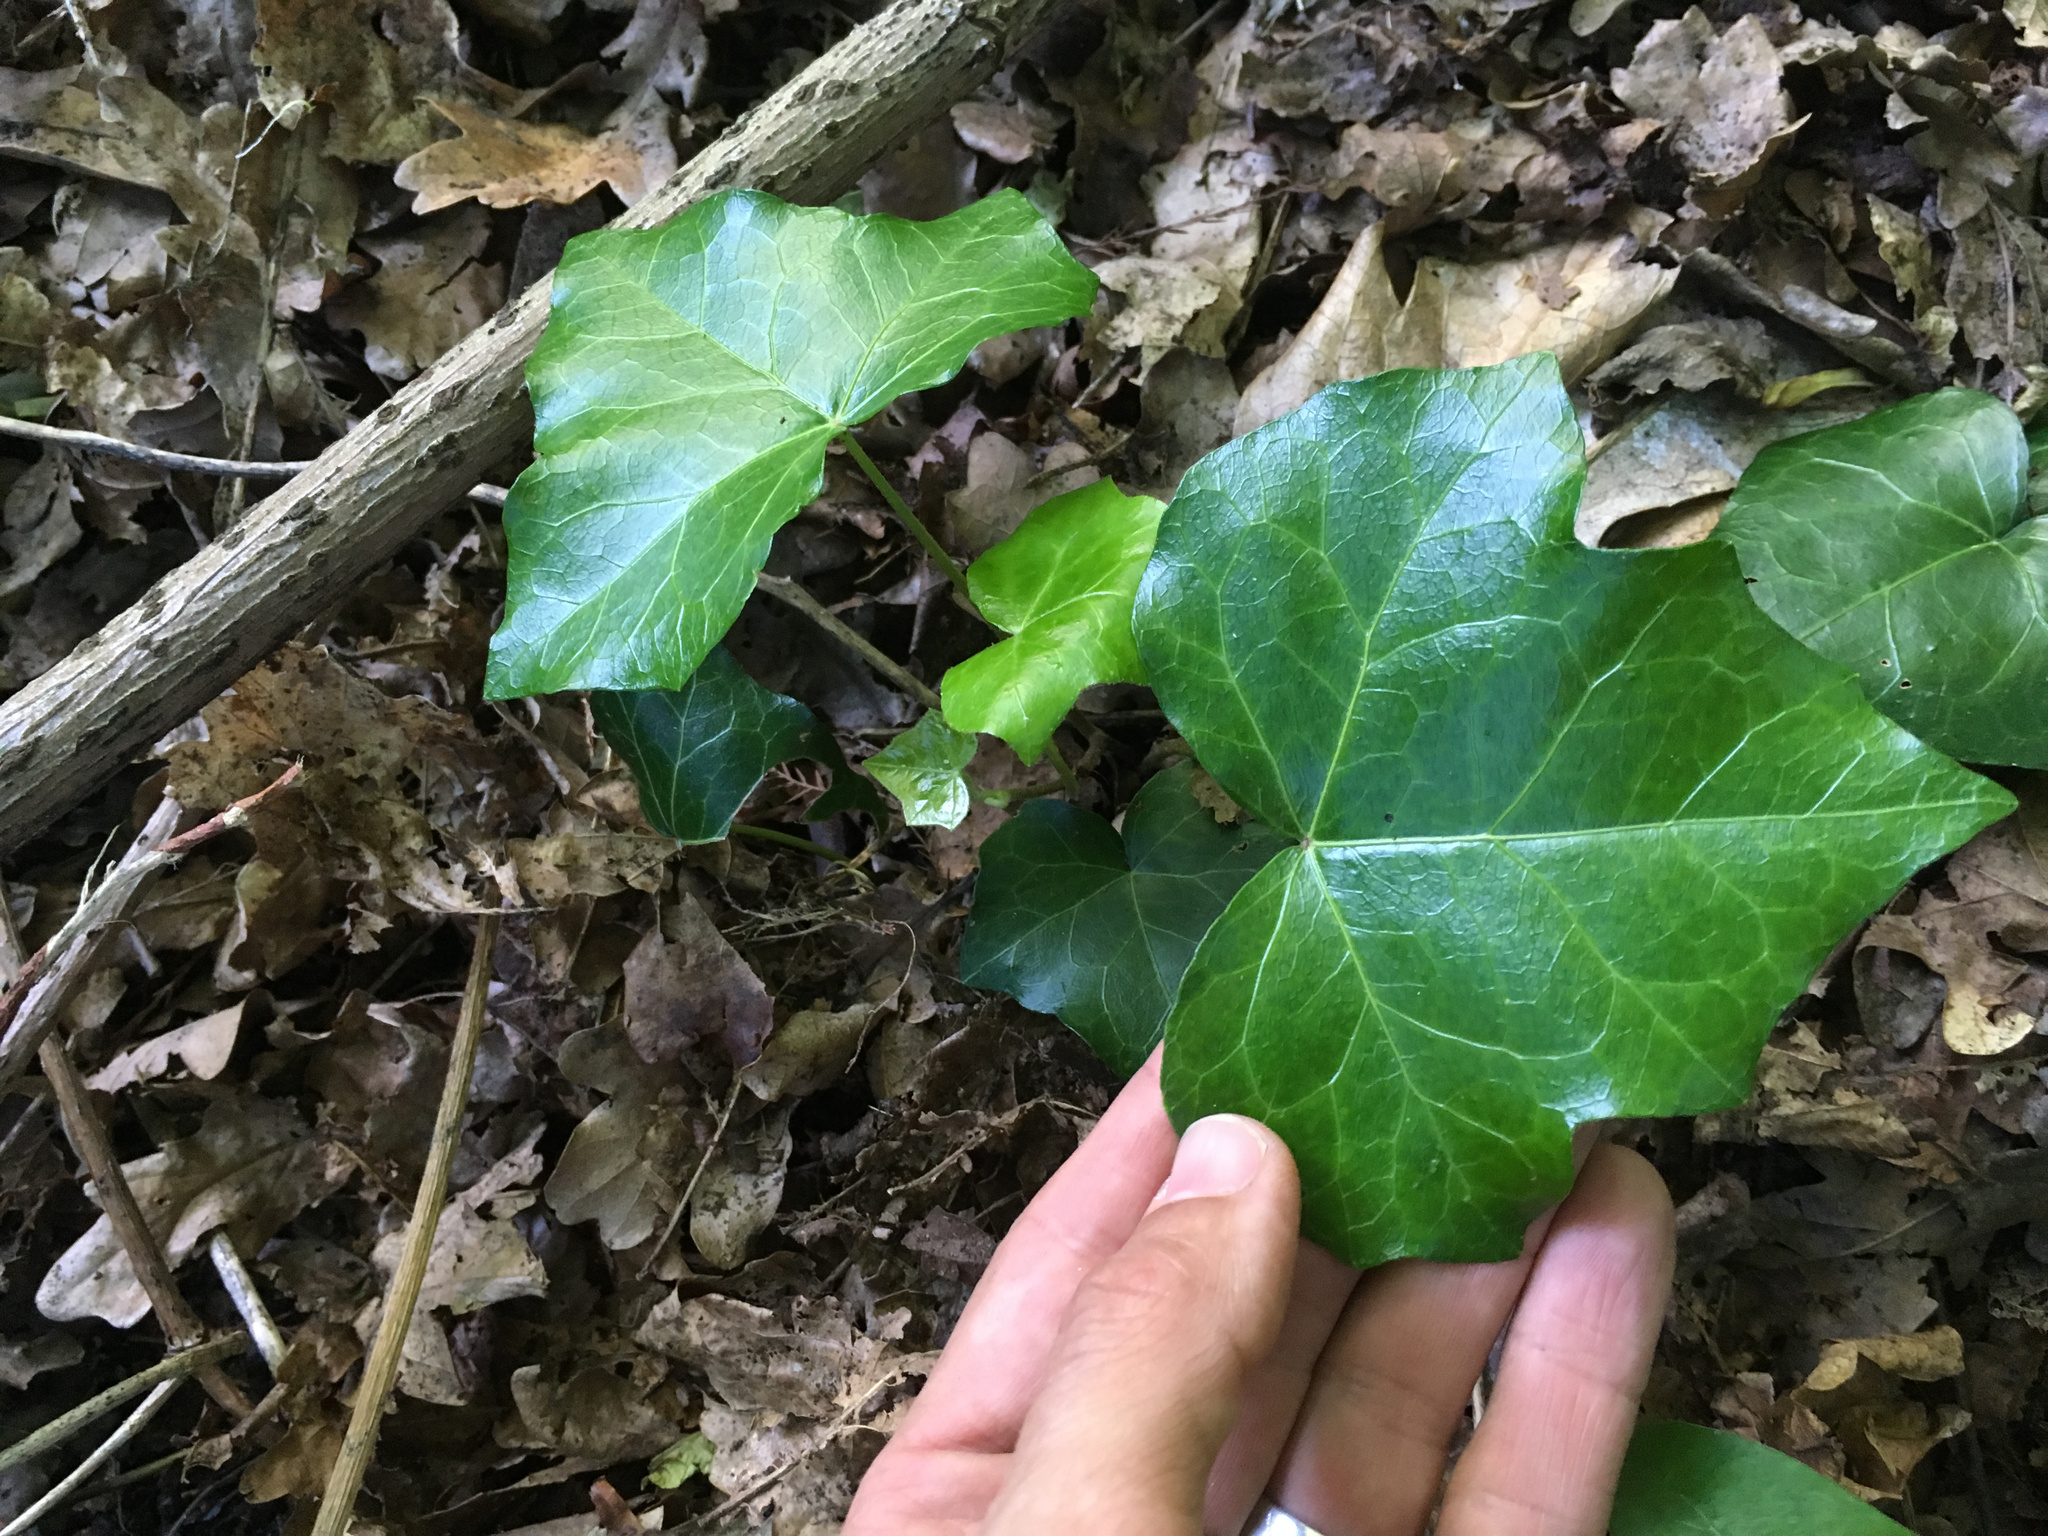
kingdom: Plantae
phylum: Tracheophyta
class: Magnoliopsida
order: Apiales
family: Araliaceae
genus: Hedera
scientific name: Hedera helix
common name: Ivy
